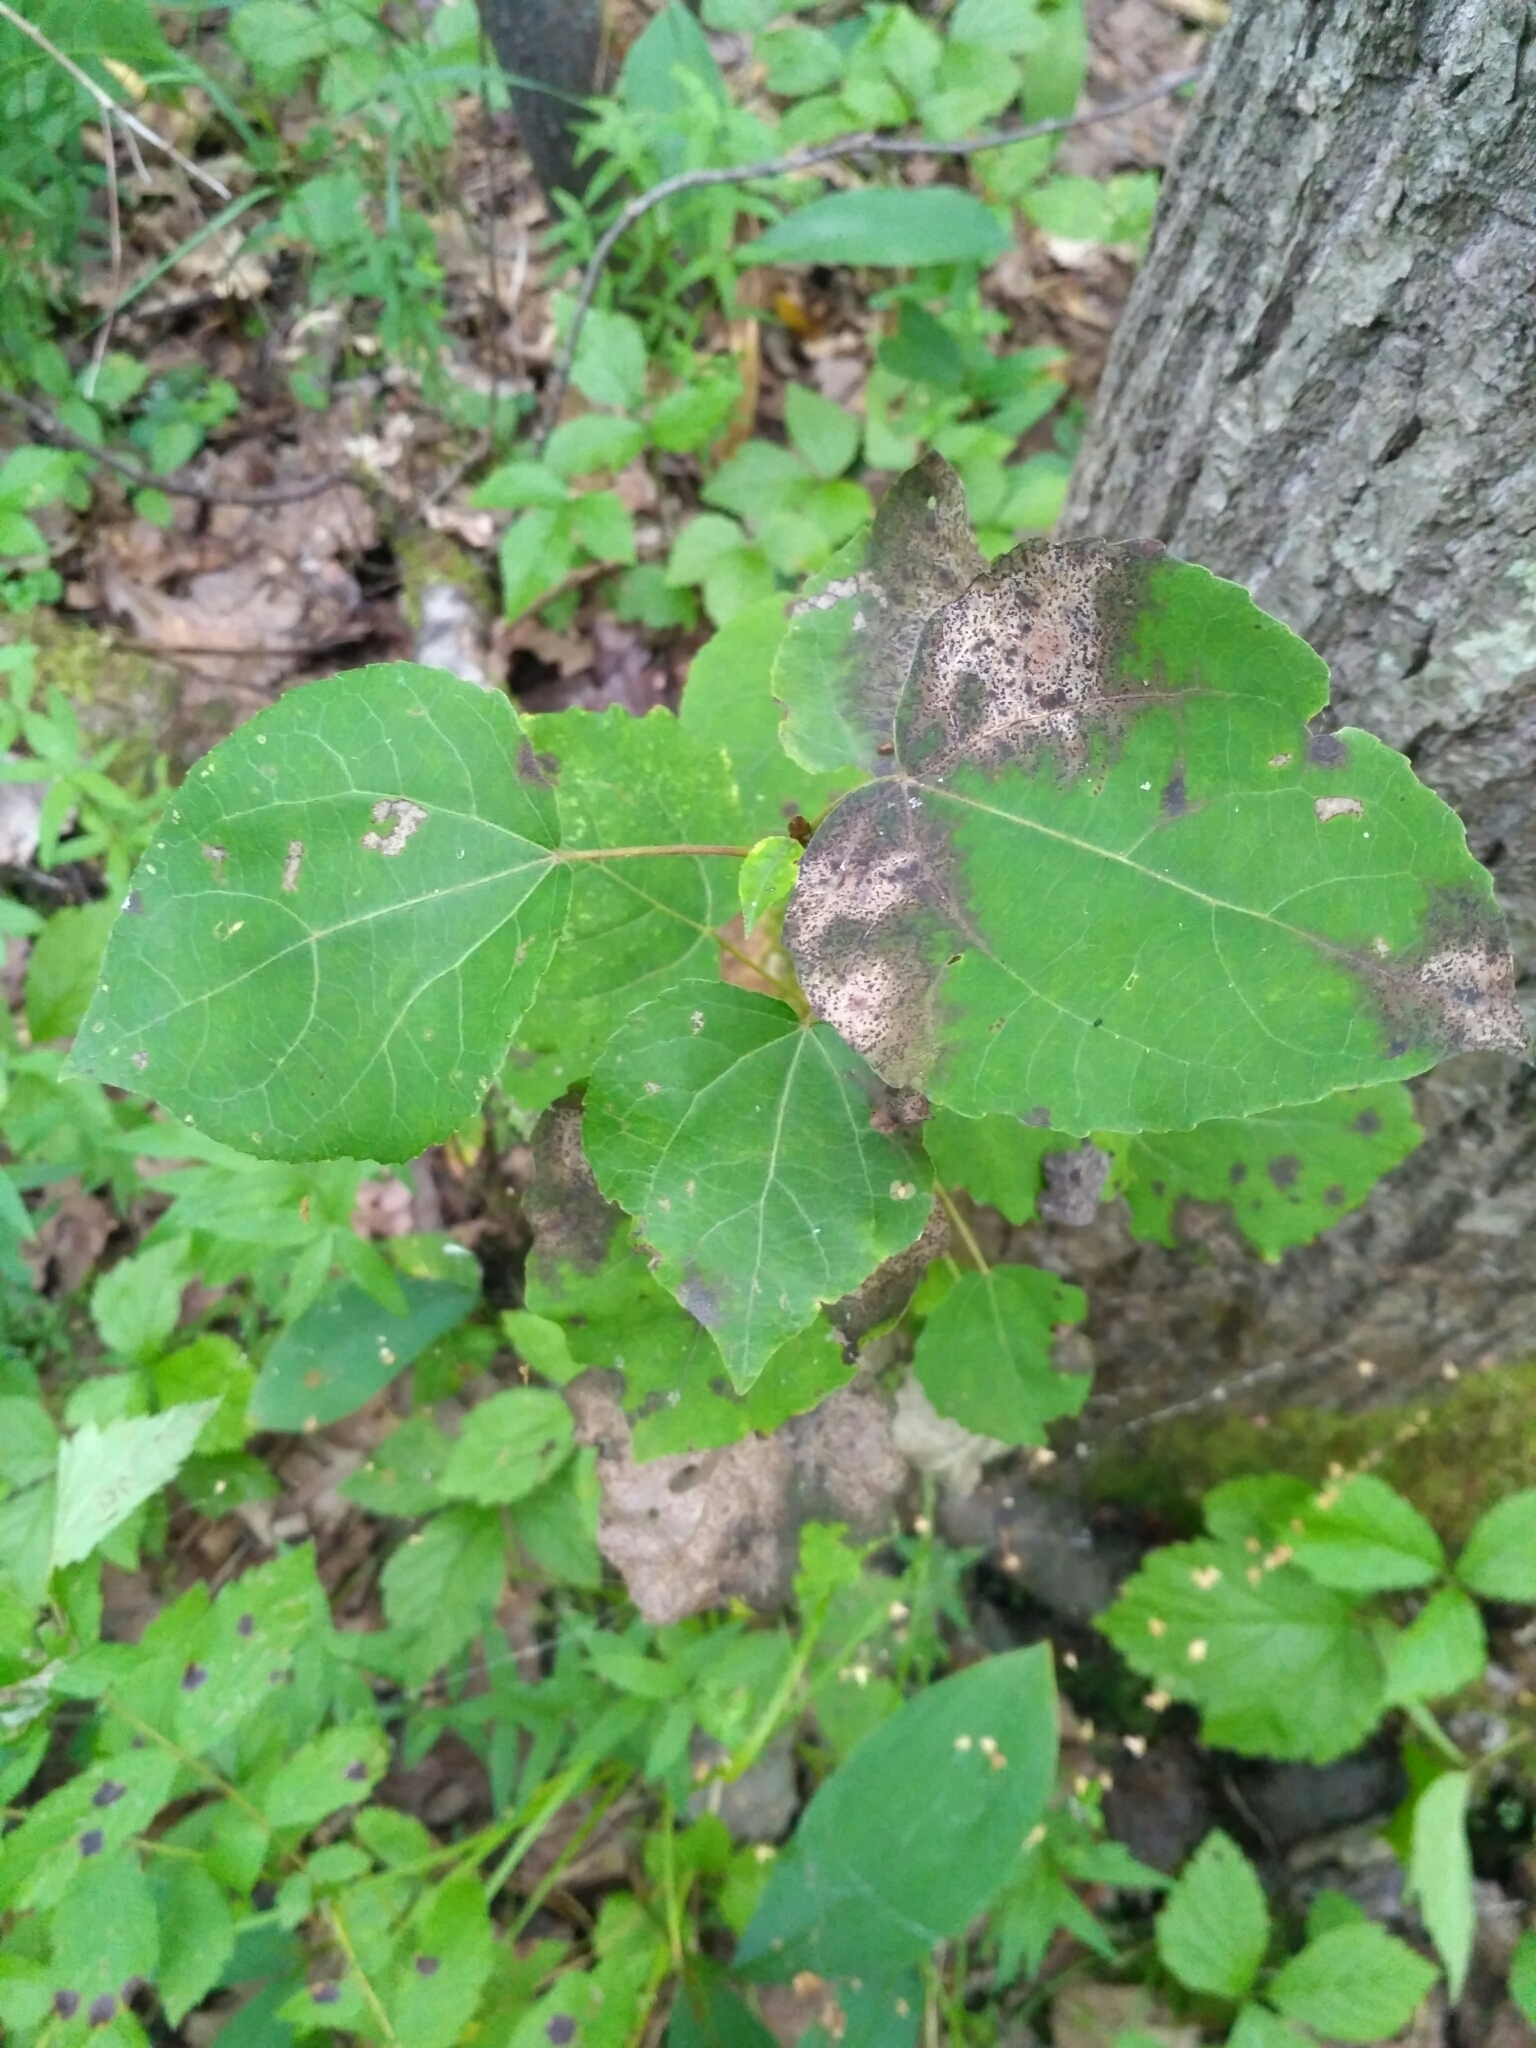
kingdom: Plantae
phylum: Tracheophyta
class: Magnoliopsida
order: Malpighiales
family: Salicaceae
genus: Populus
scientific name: Populus tremula
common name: European aspen
